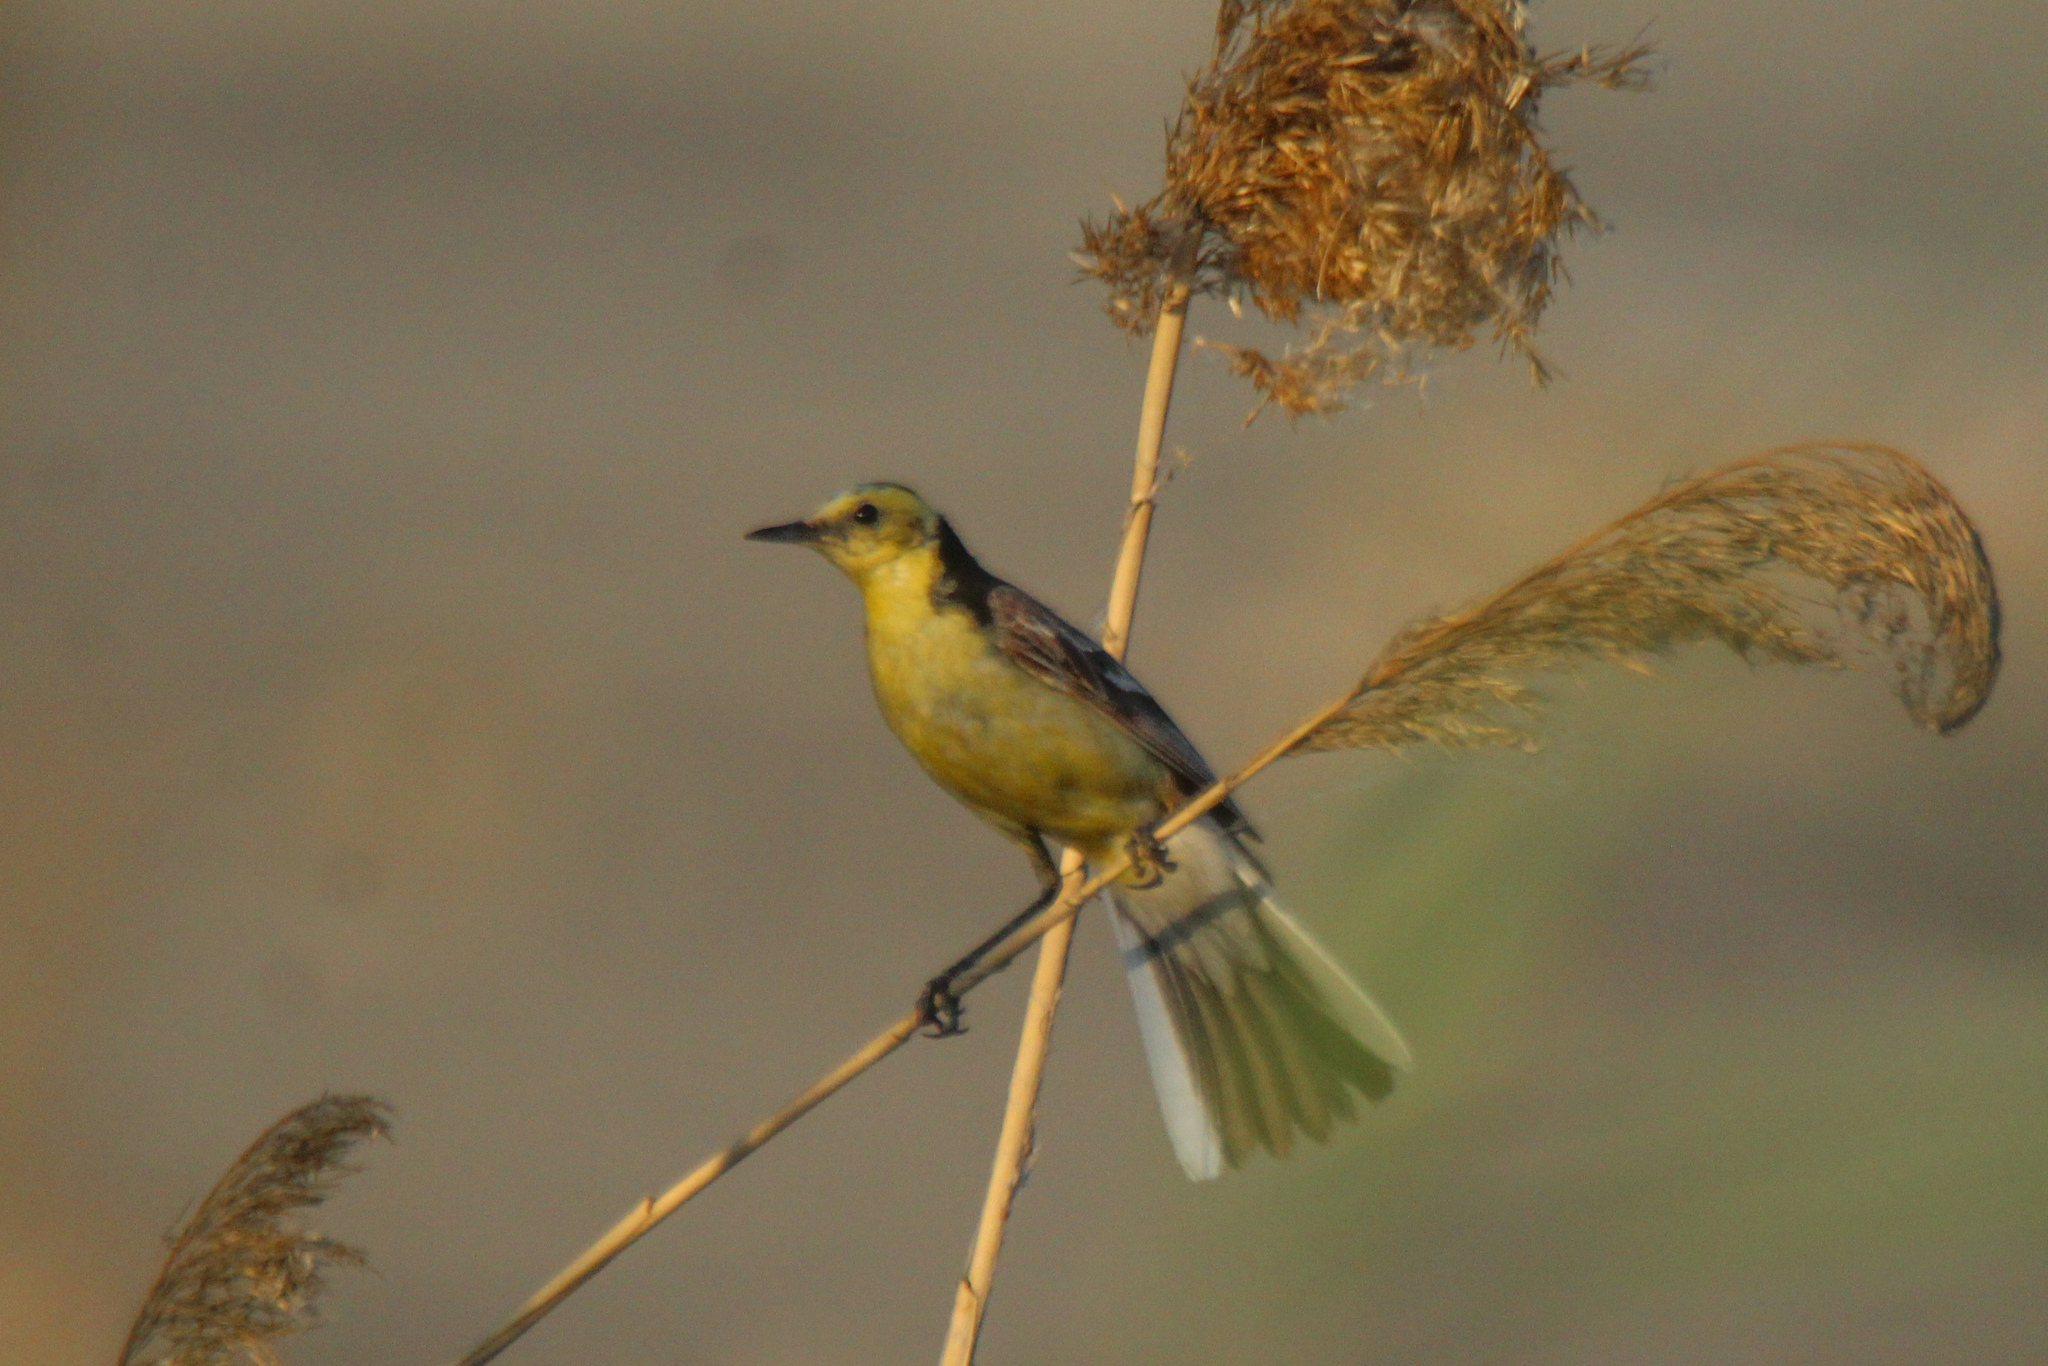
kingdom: Animalia
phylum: Chordata
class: Aves
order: Passeriformes
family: Motacillidae
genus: Motacilla
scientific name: Motacilla citreola
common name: Citrine wagtail
